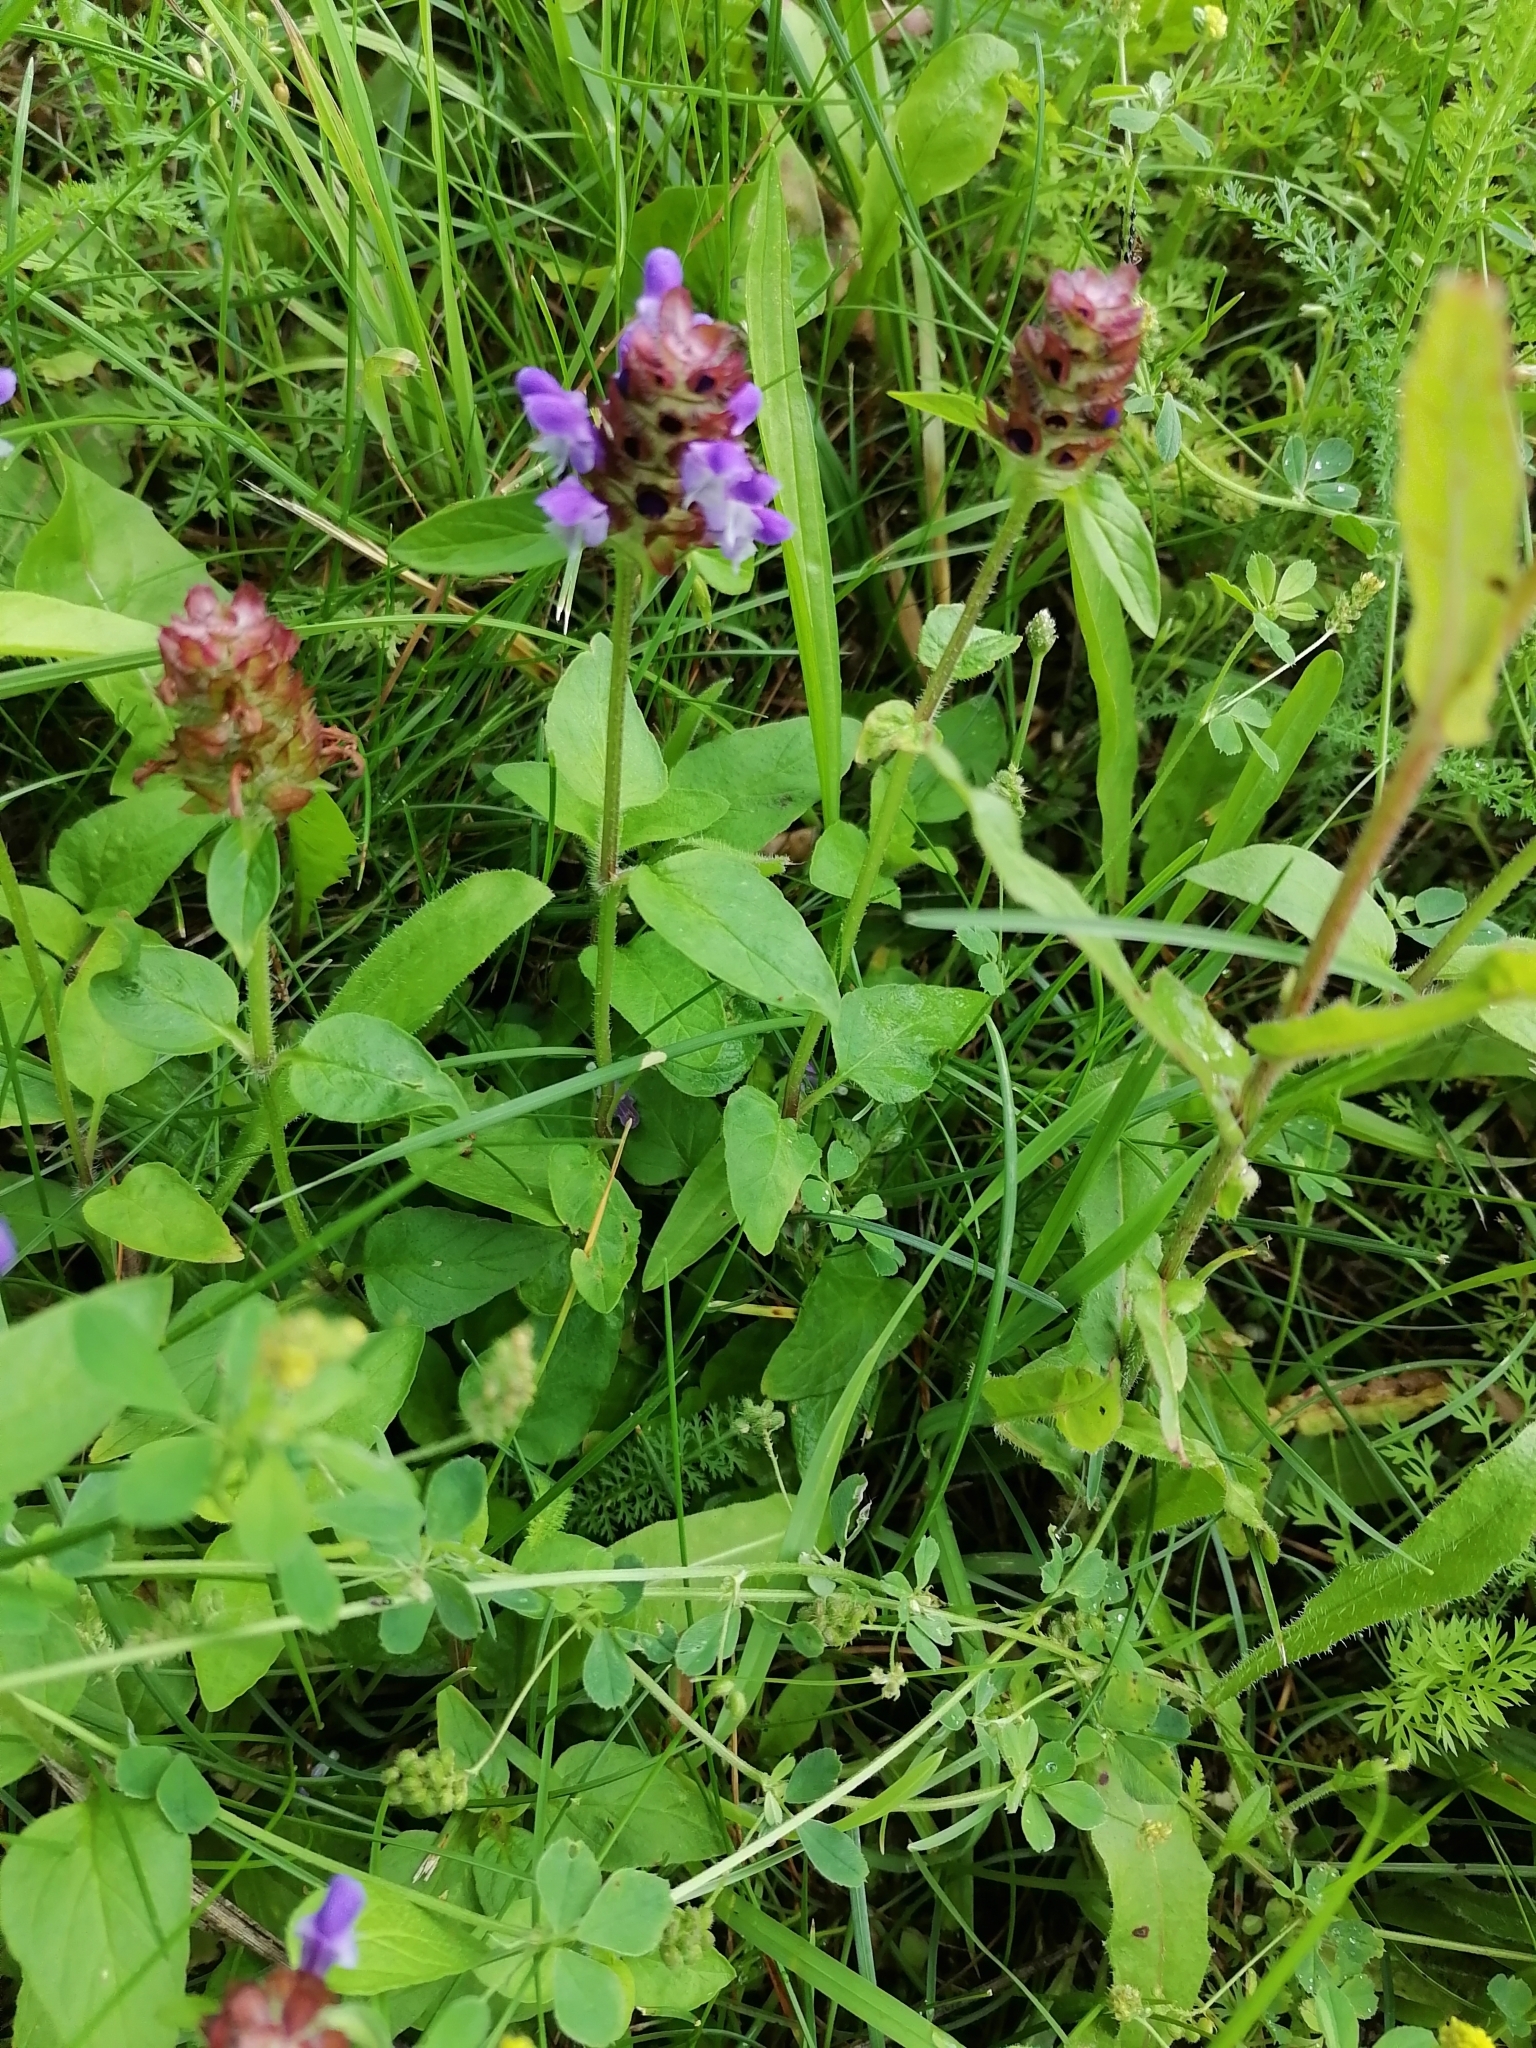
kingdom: Plantae
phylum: Tracheophyta
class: Magnoliopsida
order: Lamiales
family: Lamiaceae
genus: Prunella
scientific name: Prunella vulgaris
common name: Heal-all
